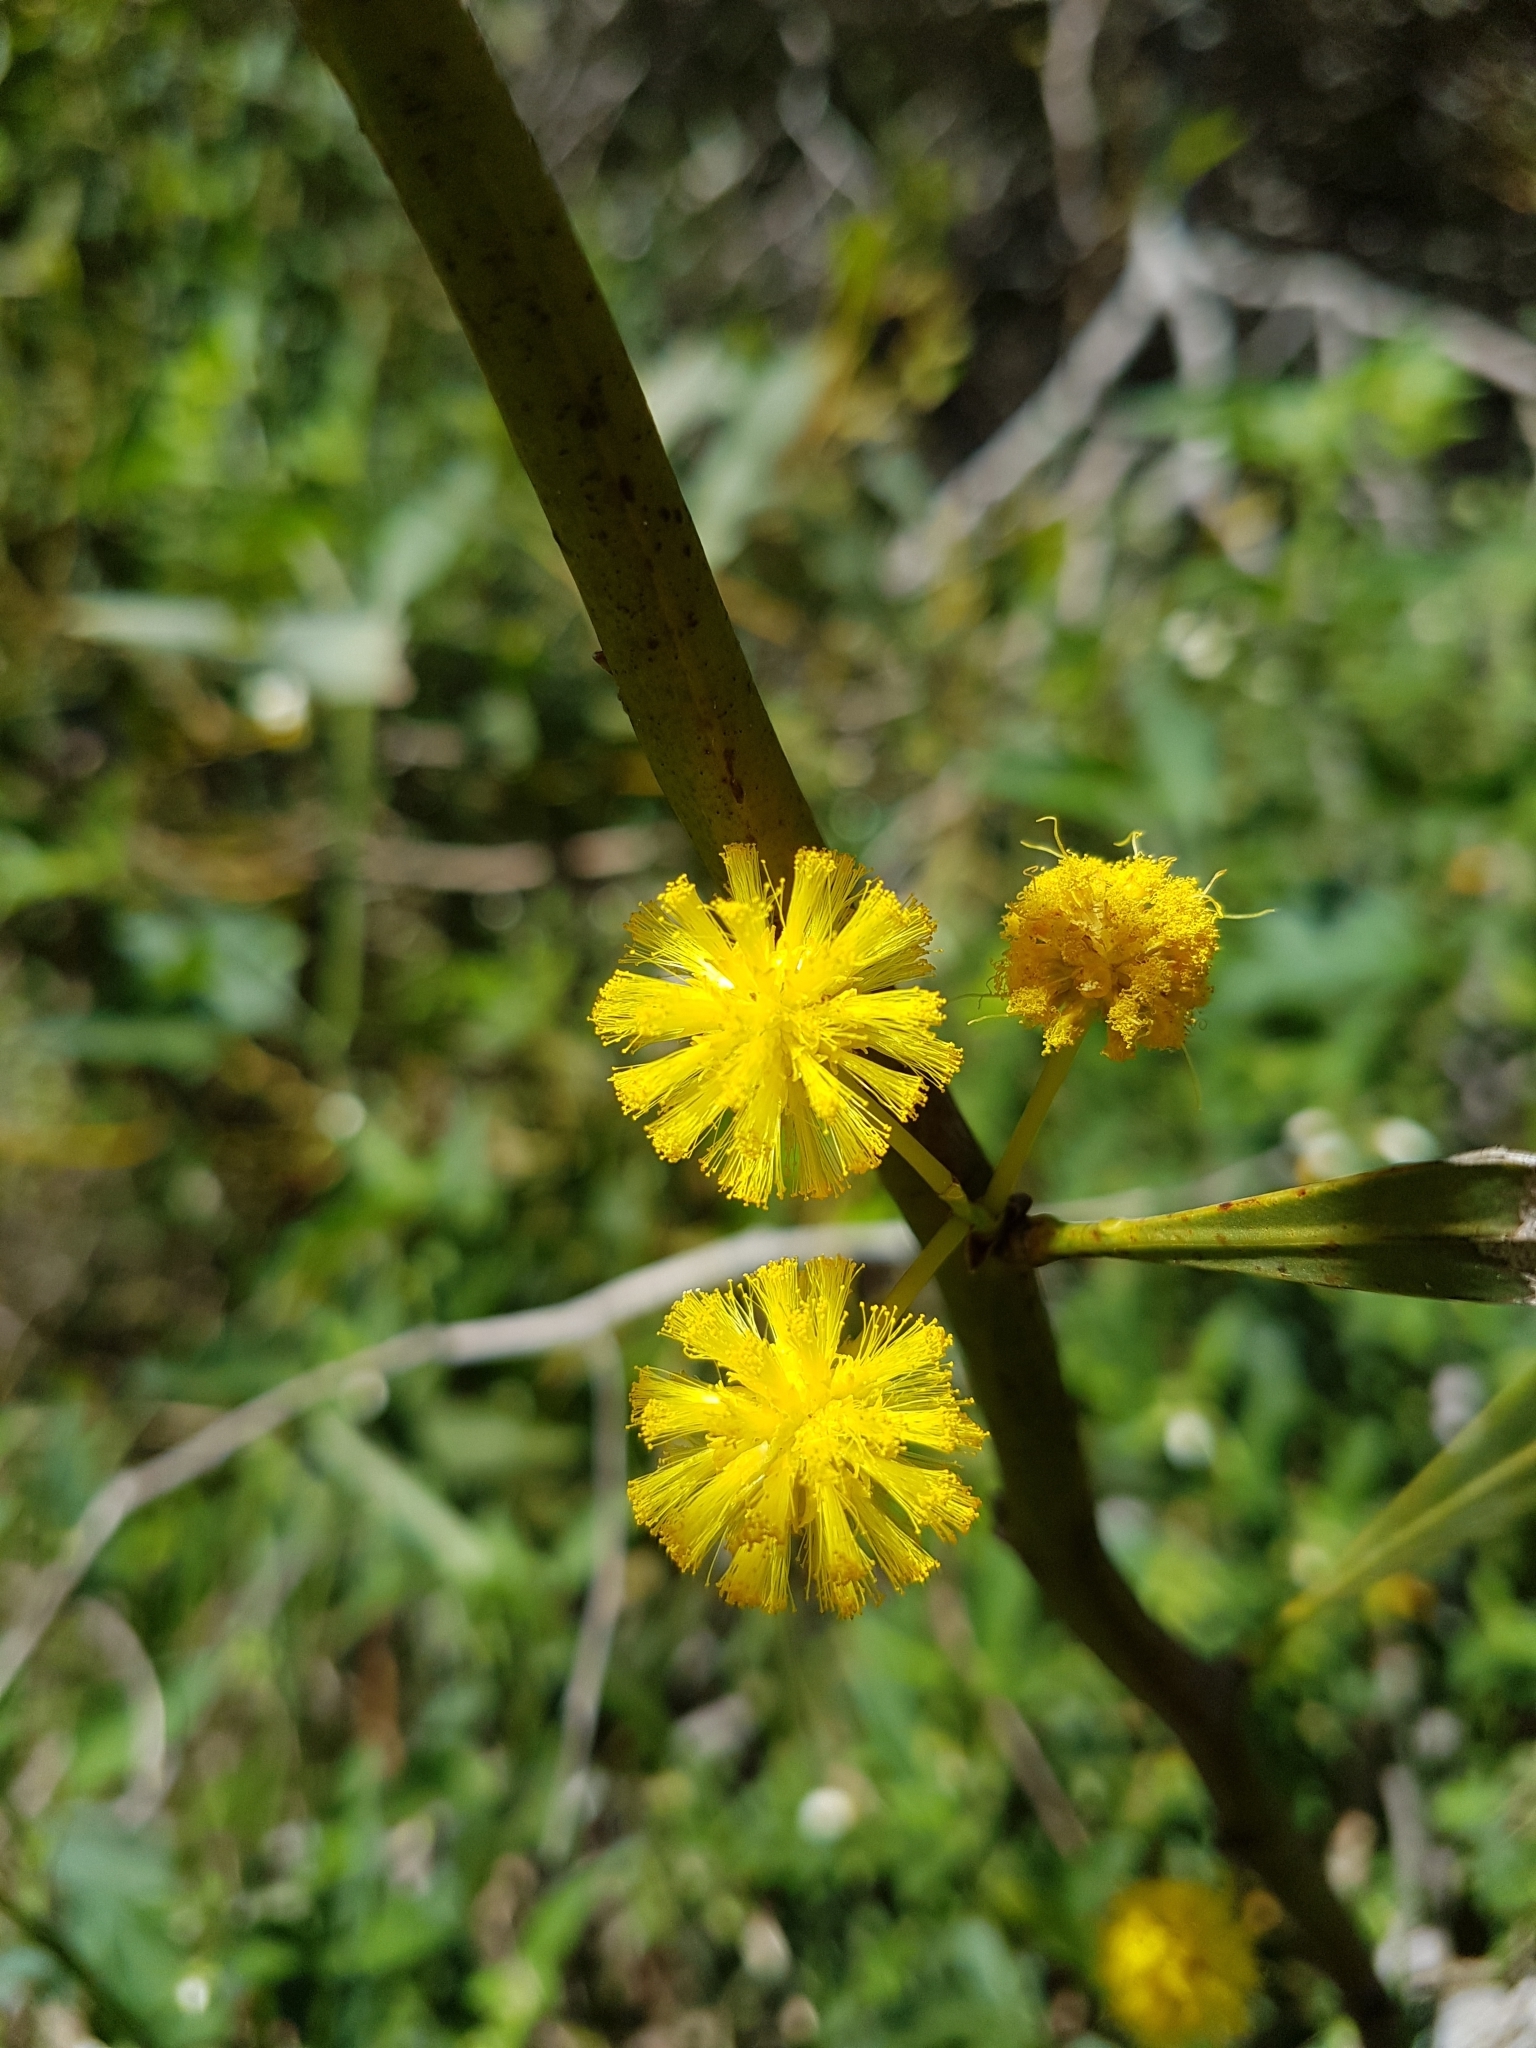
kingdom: Plantae
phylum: Tracheophyta
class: Magnoliopsida
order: Fabales
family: Fabaceae
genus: Acacia
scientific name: Acacia saligna
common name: Orange wattle
